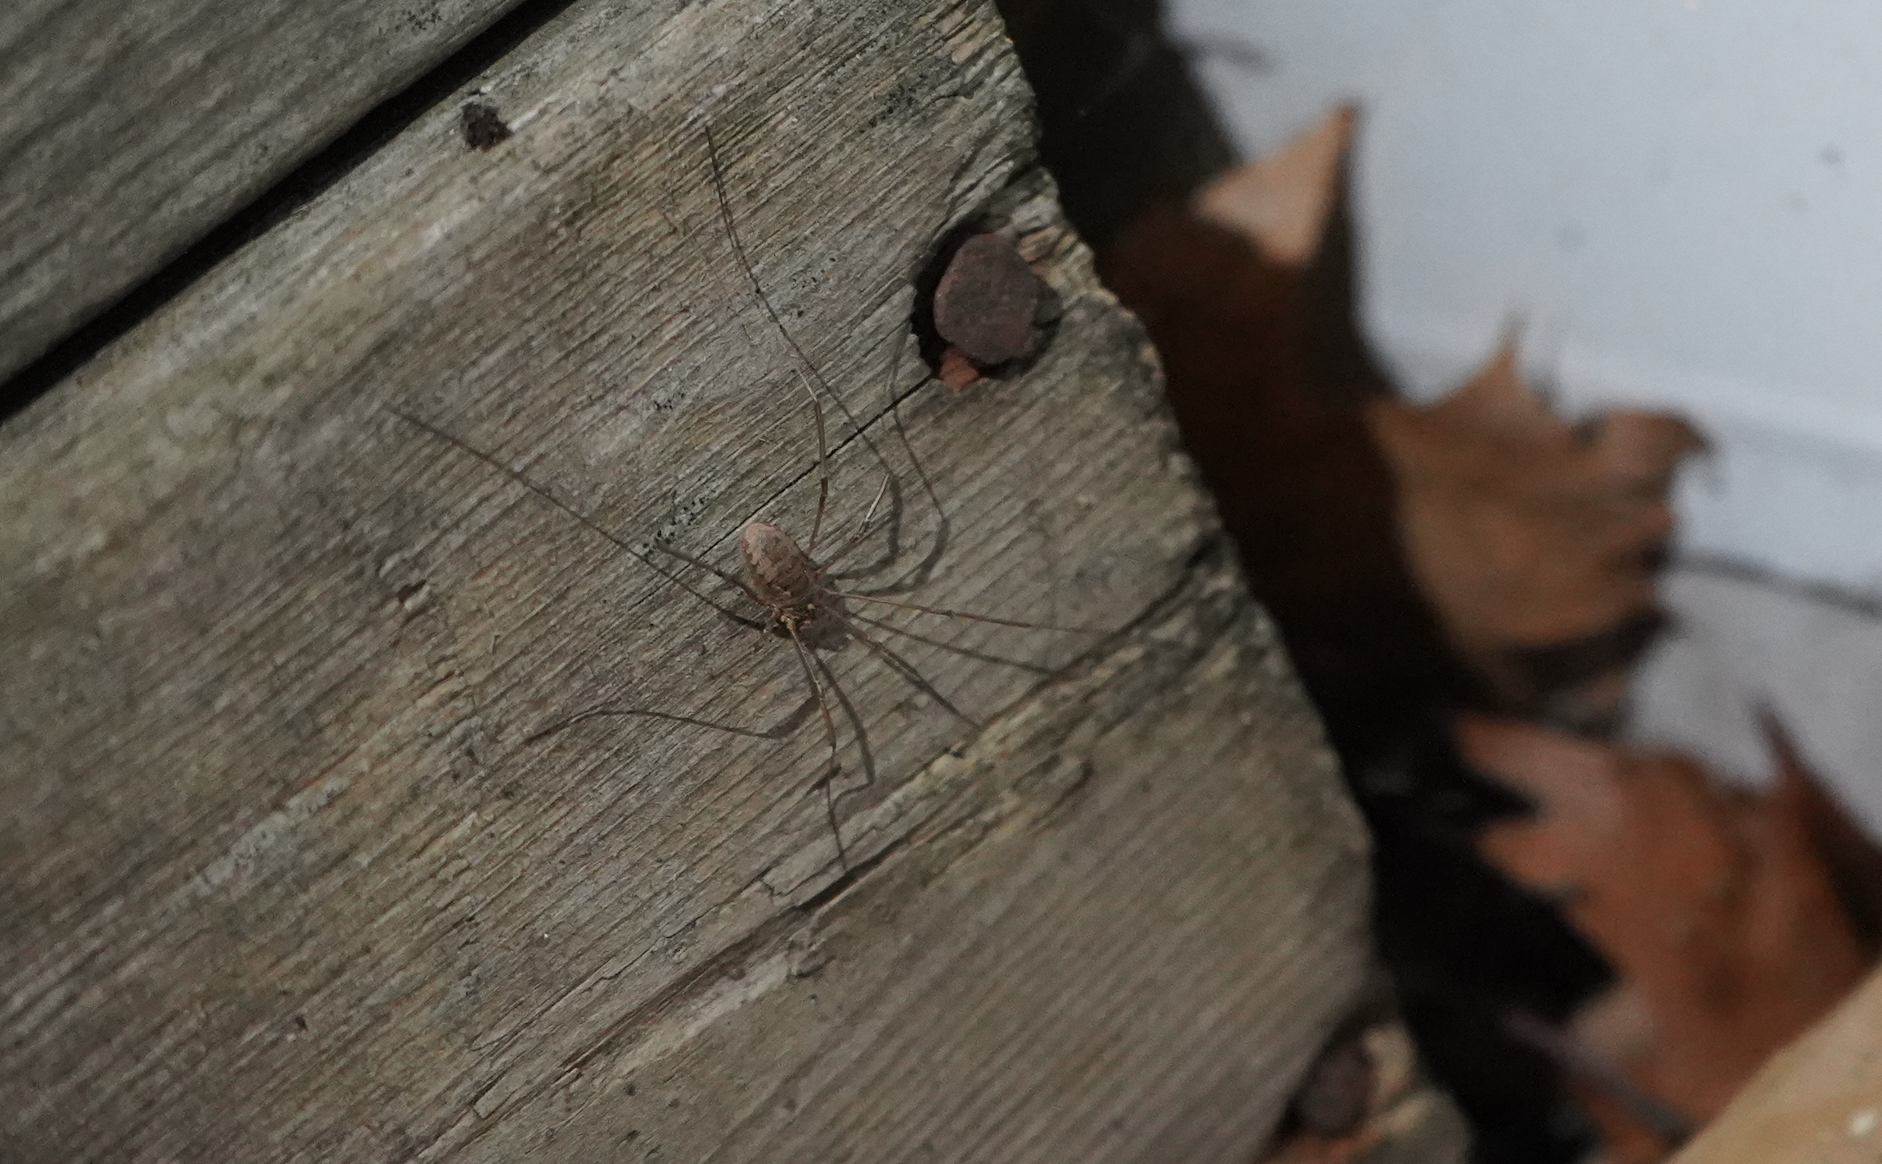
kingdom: Animalia
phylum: Arthropoda
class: Arachnida
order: Opiliones
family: Phalangiidae
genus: Phalangium
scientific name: Phalangium opilio
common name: Daddy longleg
